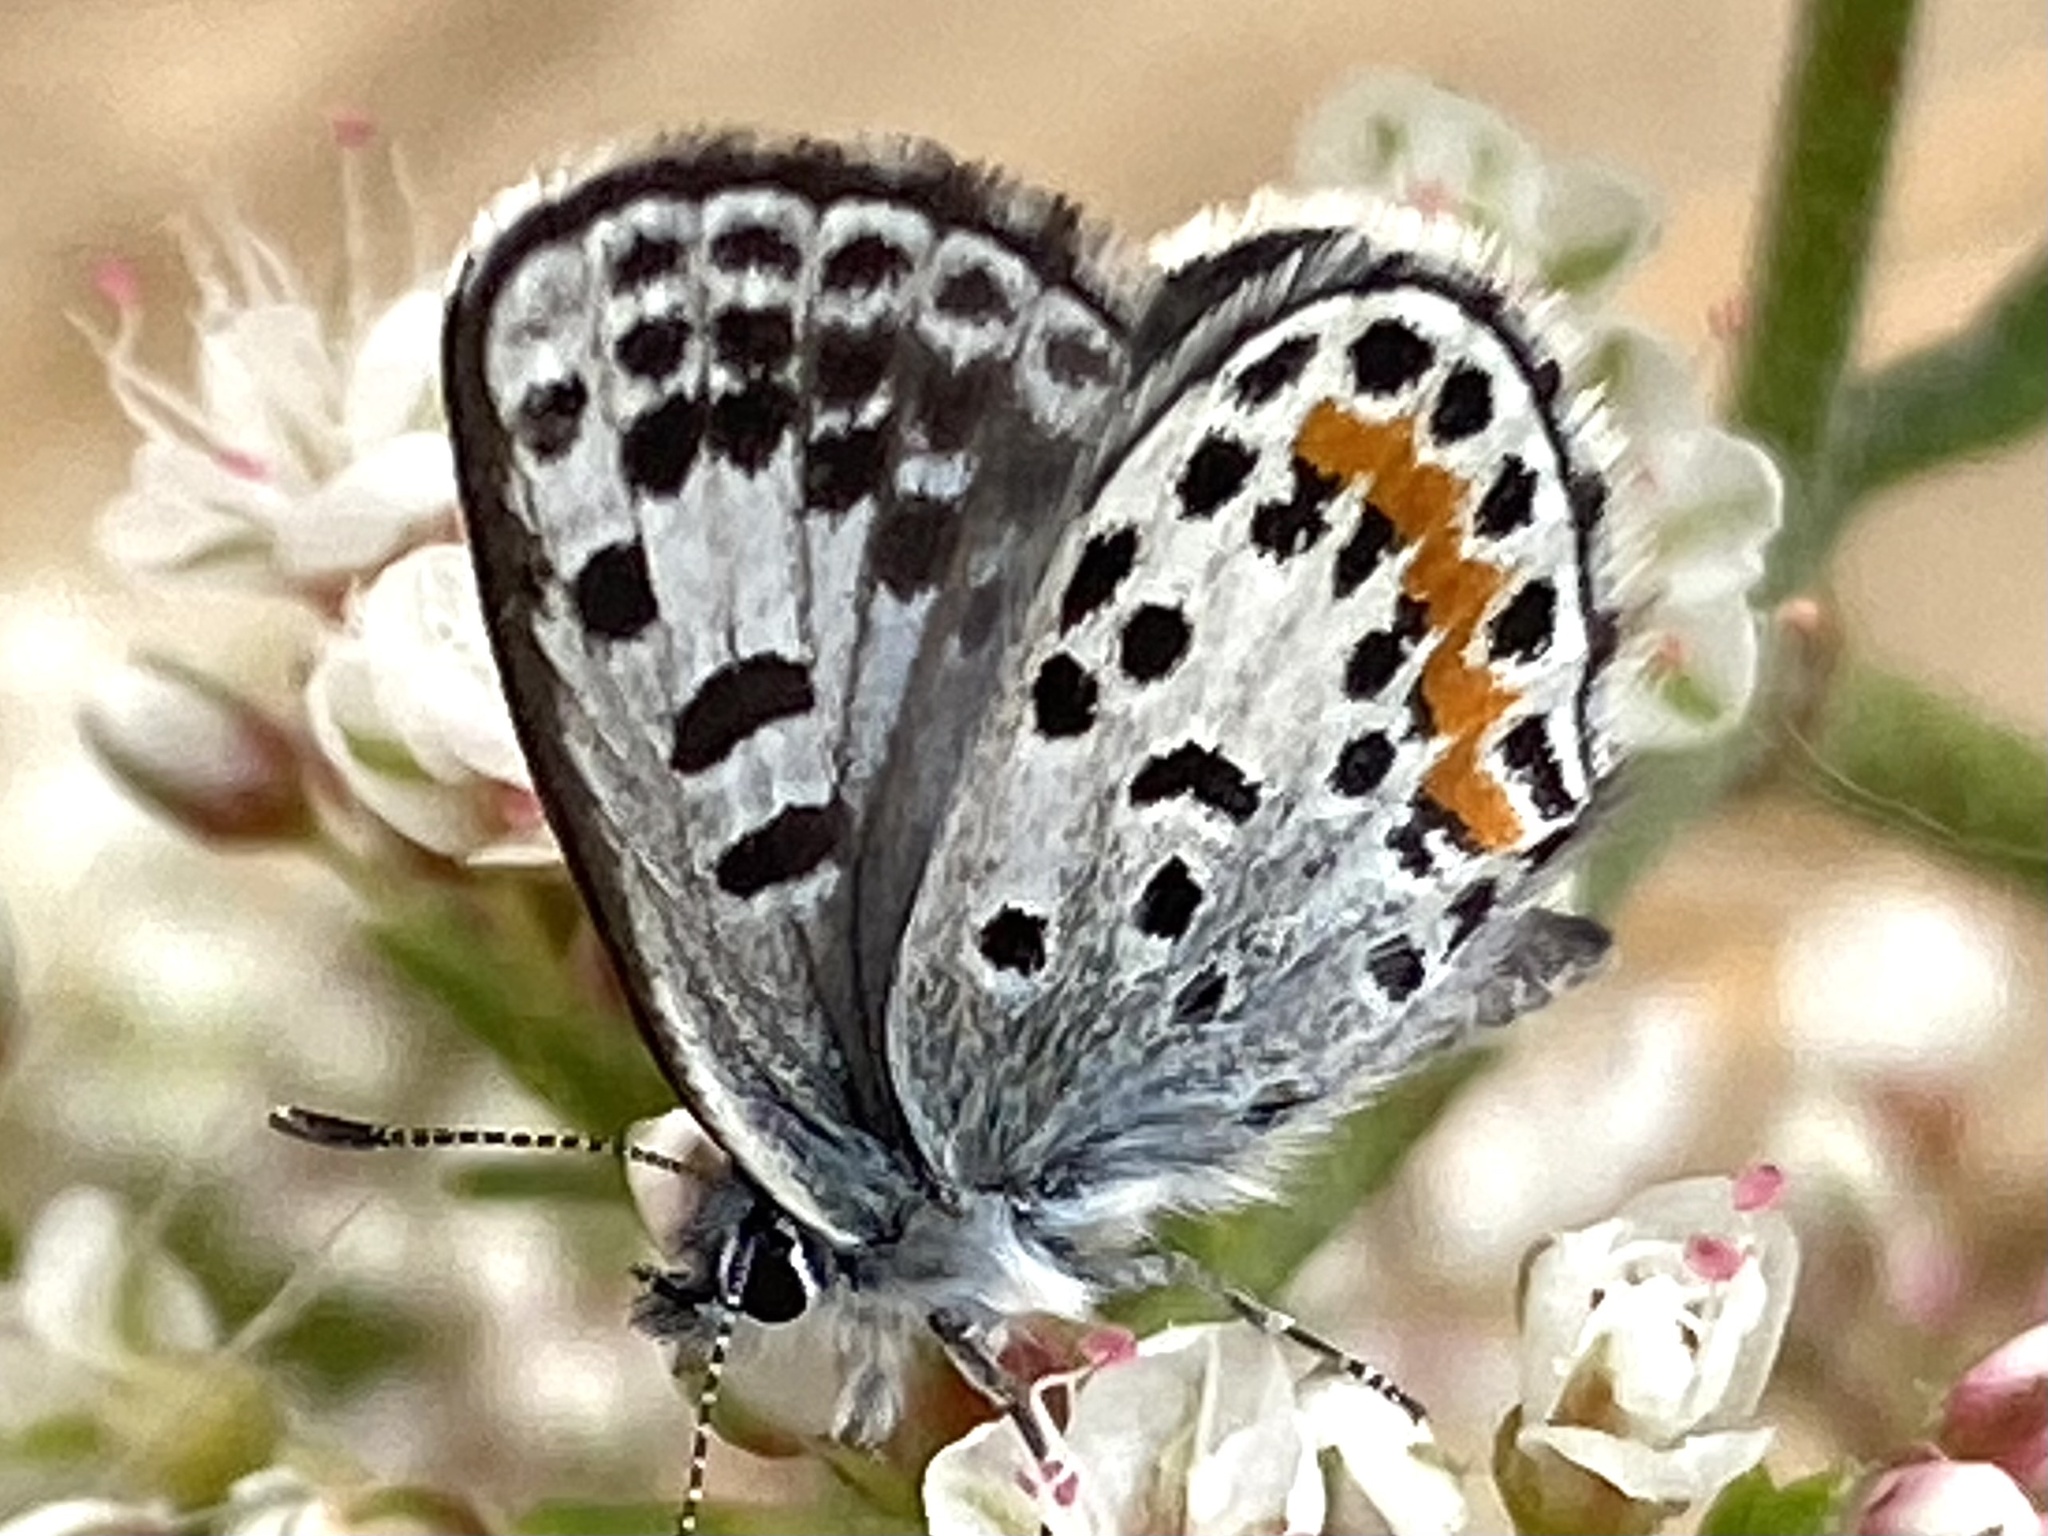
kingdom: Animalia
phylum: Arthropoda
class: Insecta
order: Lepidoptera
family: Lycaenidae
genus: Philotes
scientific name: Philotes bernardino
